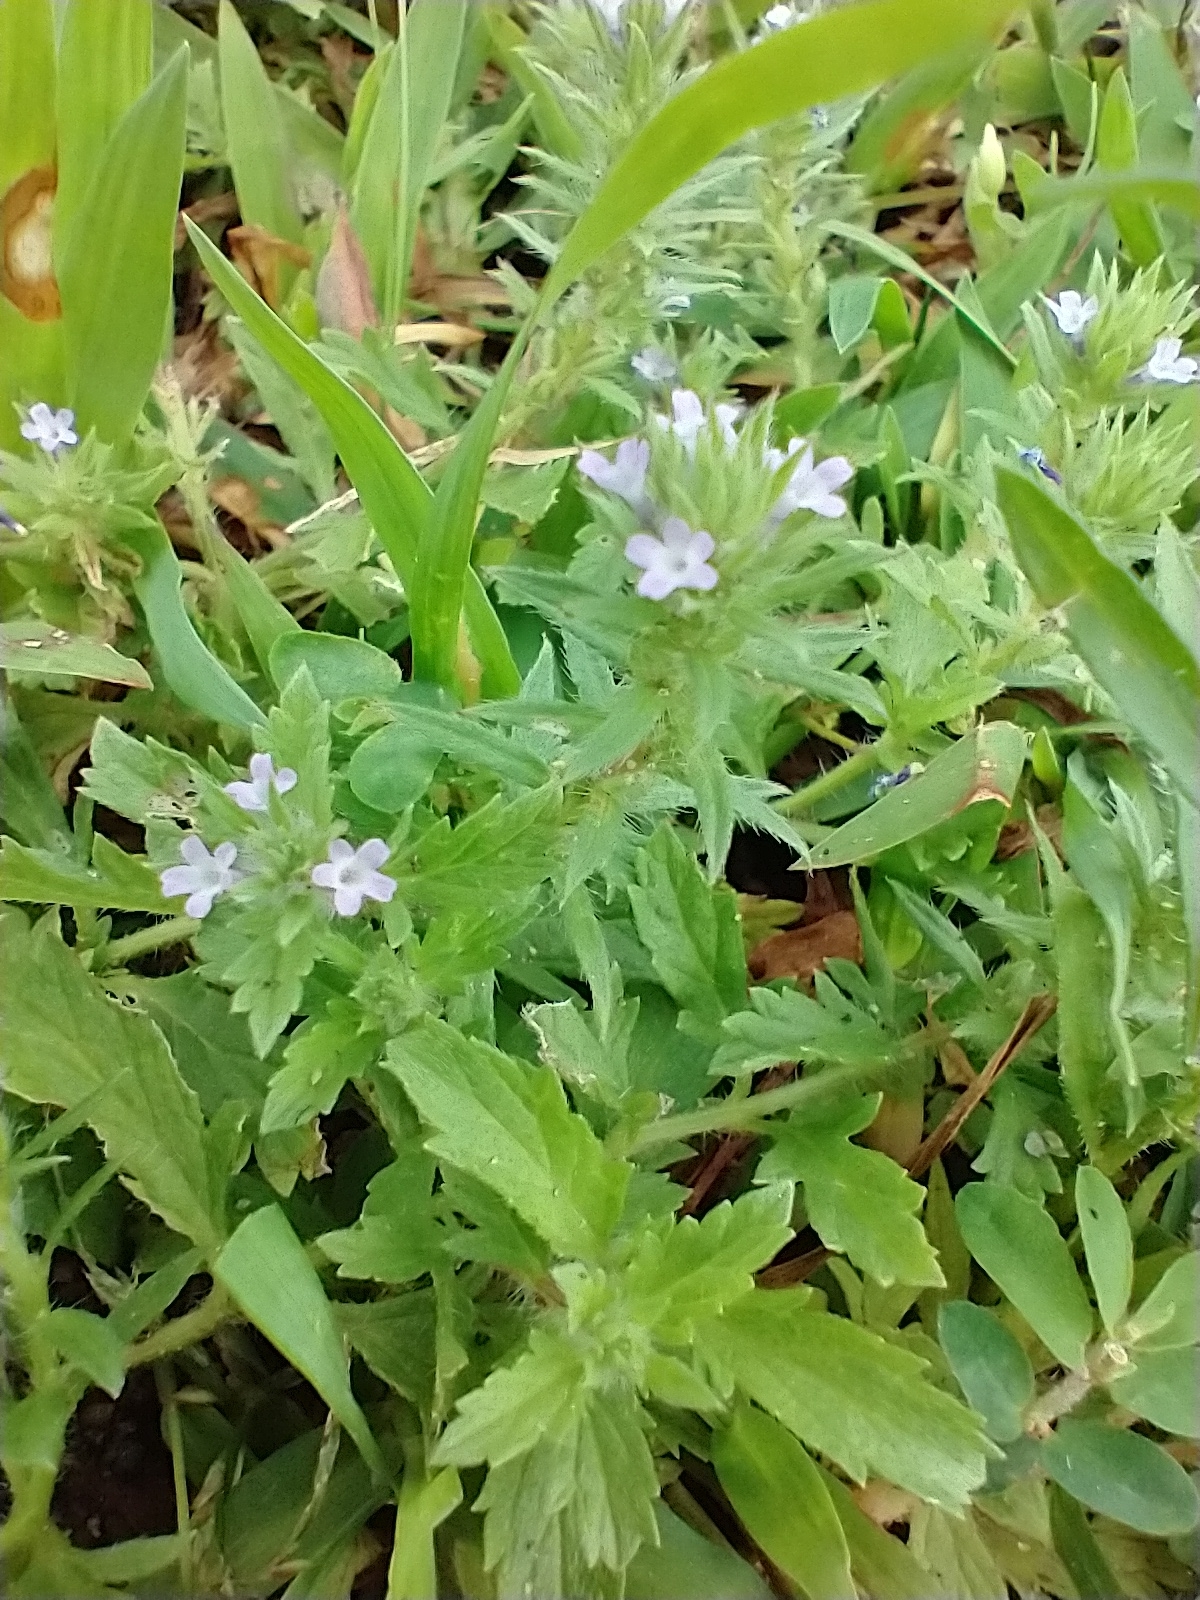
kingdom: Plantae
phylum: Tracheophyta
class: Magnoliopsida
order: Lamiales
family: Verbenaceae
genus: Verbena
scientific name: Verbena bracteata
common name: Bracted vervain
